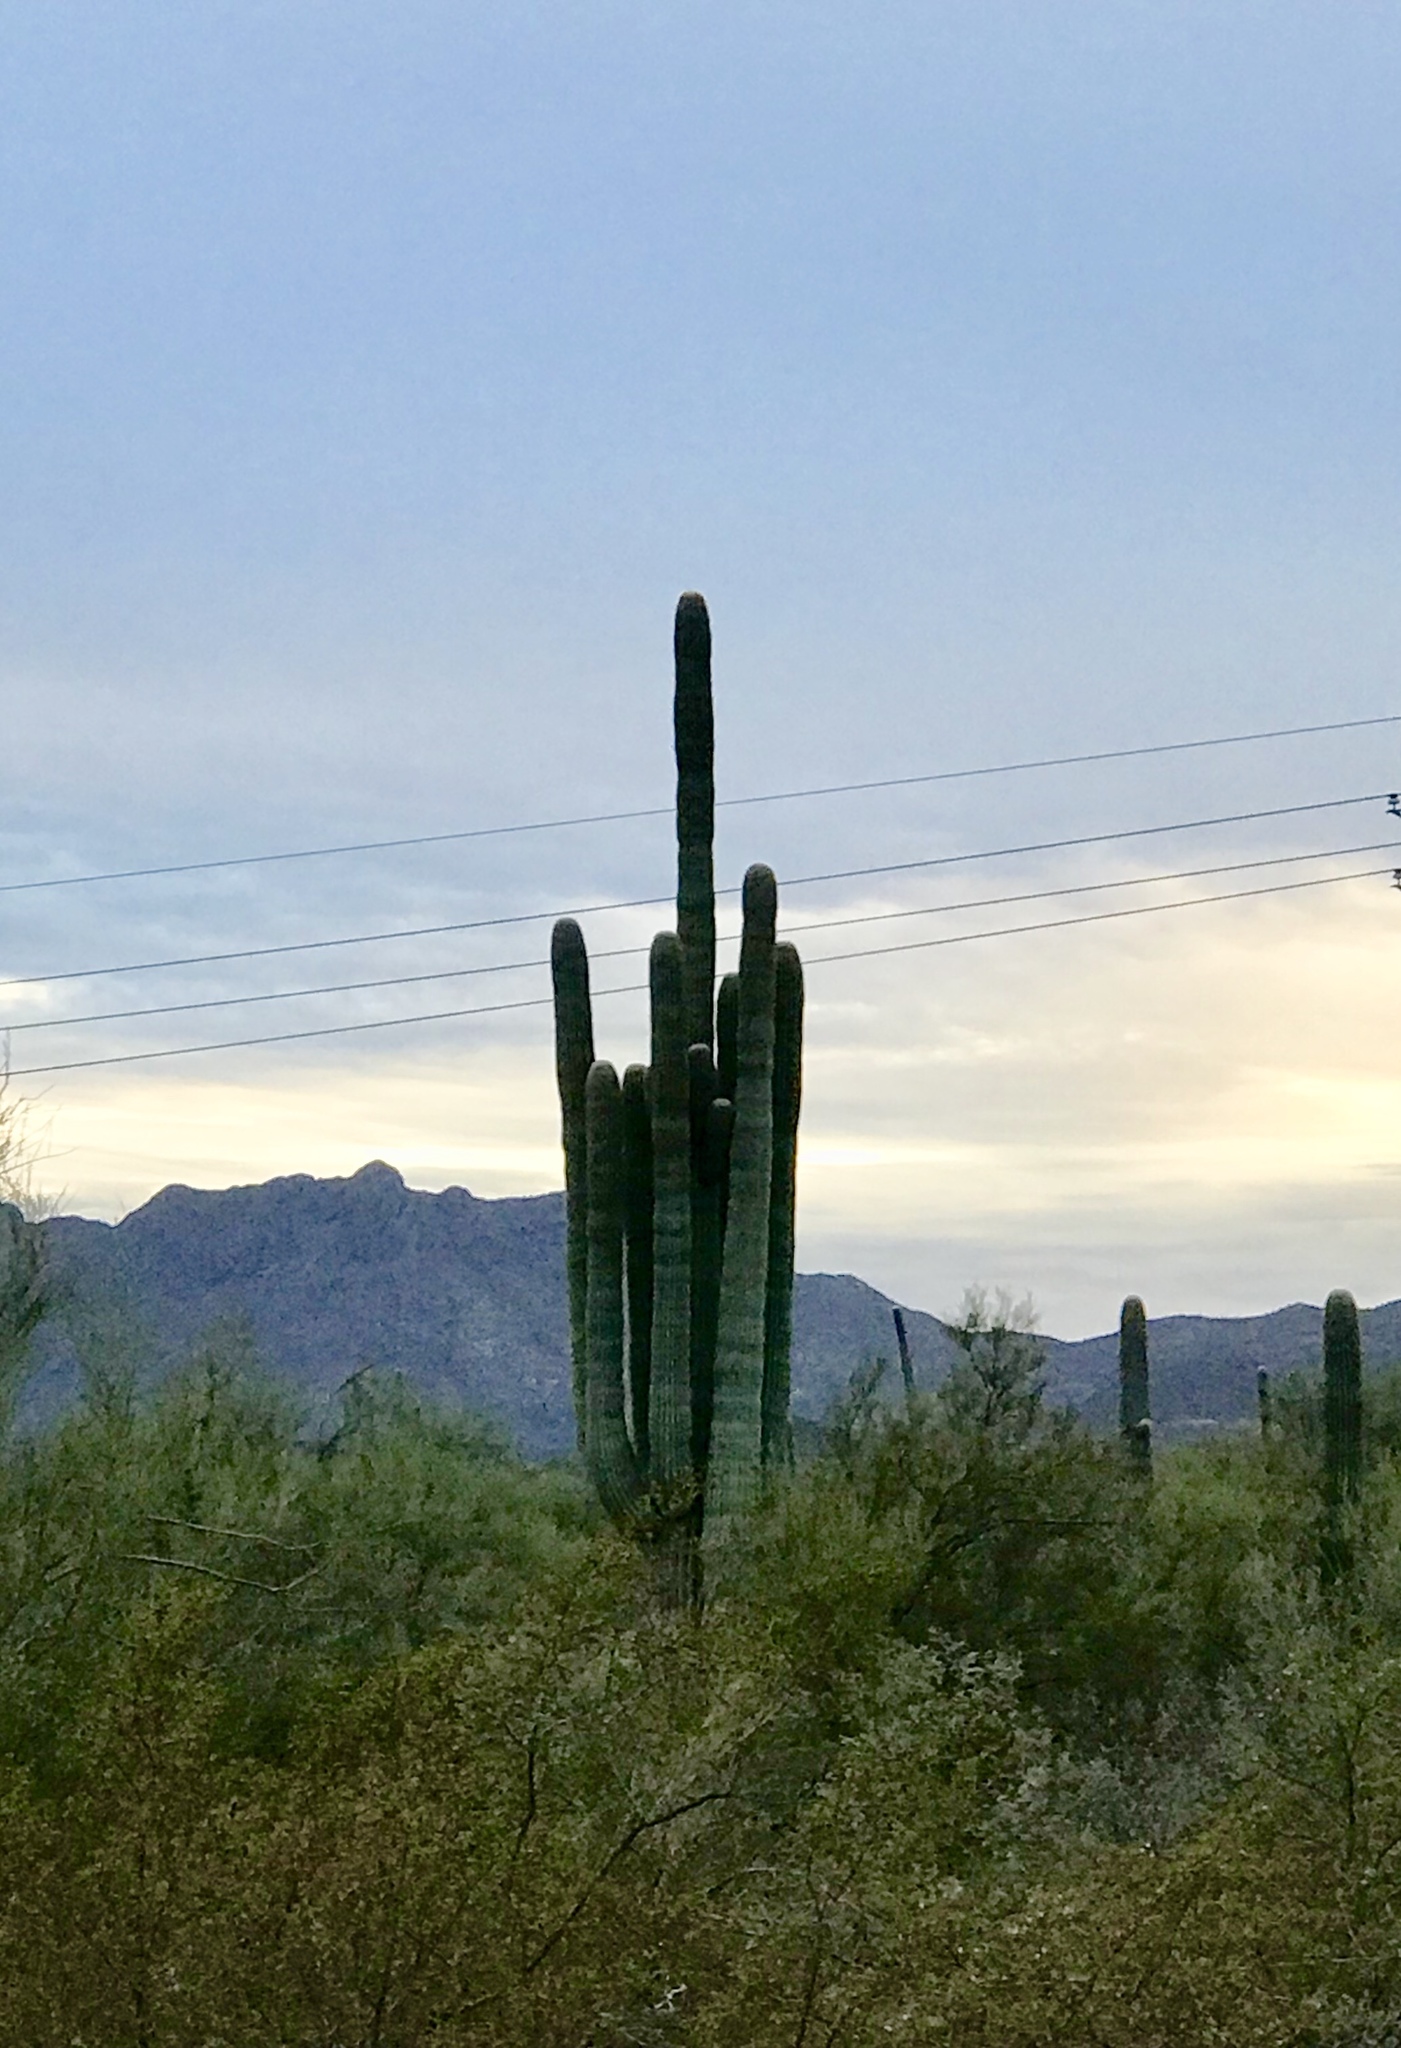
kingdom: Plantae
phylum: Tracheophyta
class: Magnoliopsida
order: Caryophyllales
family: Cactaceae
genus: Carnegiea
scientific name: Carnegiea gigantea
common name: Saguaro
